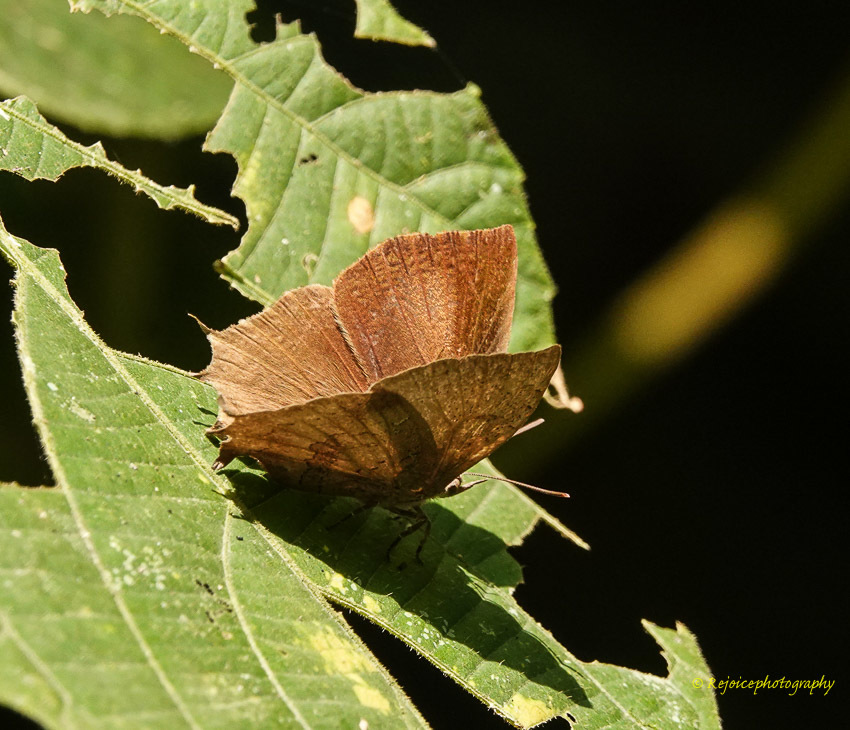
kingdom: Animalia
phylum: Arthropoda
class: Insecta
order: Lepidoptera
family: Lycaenidae
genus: Surendra
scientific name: Surendra quercetorum
